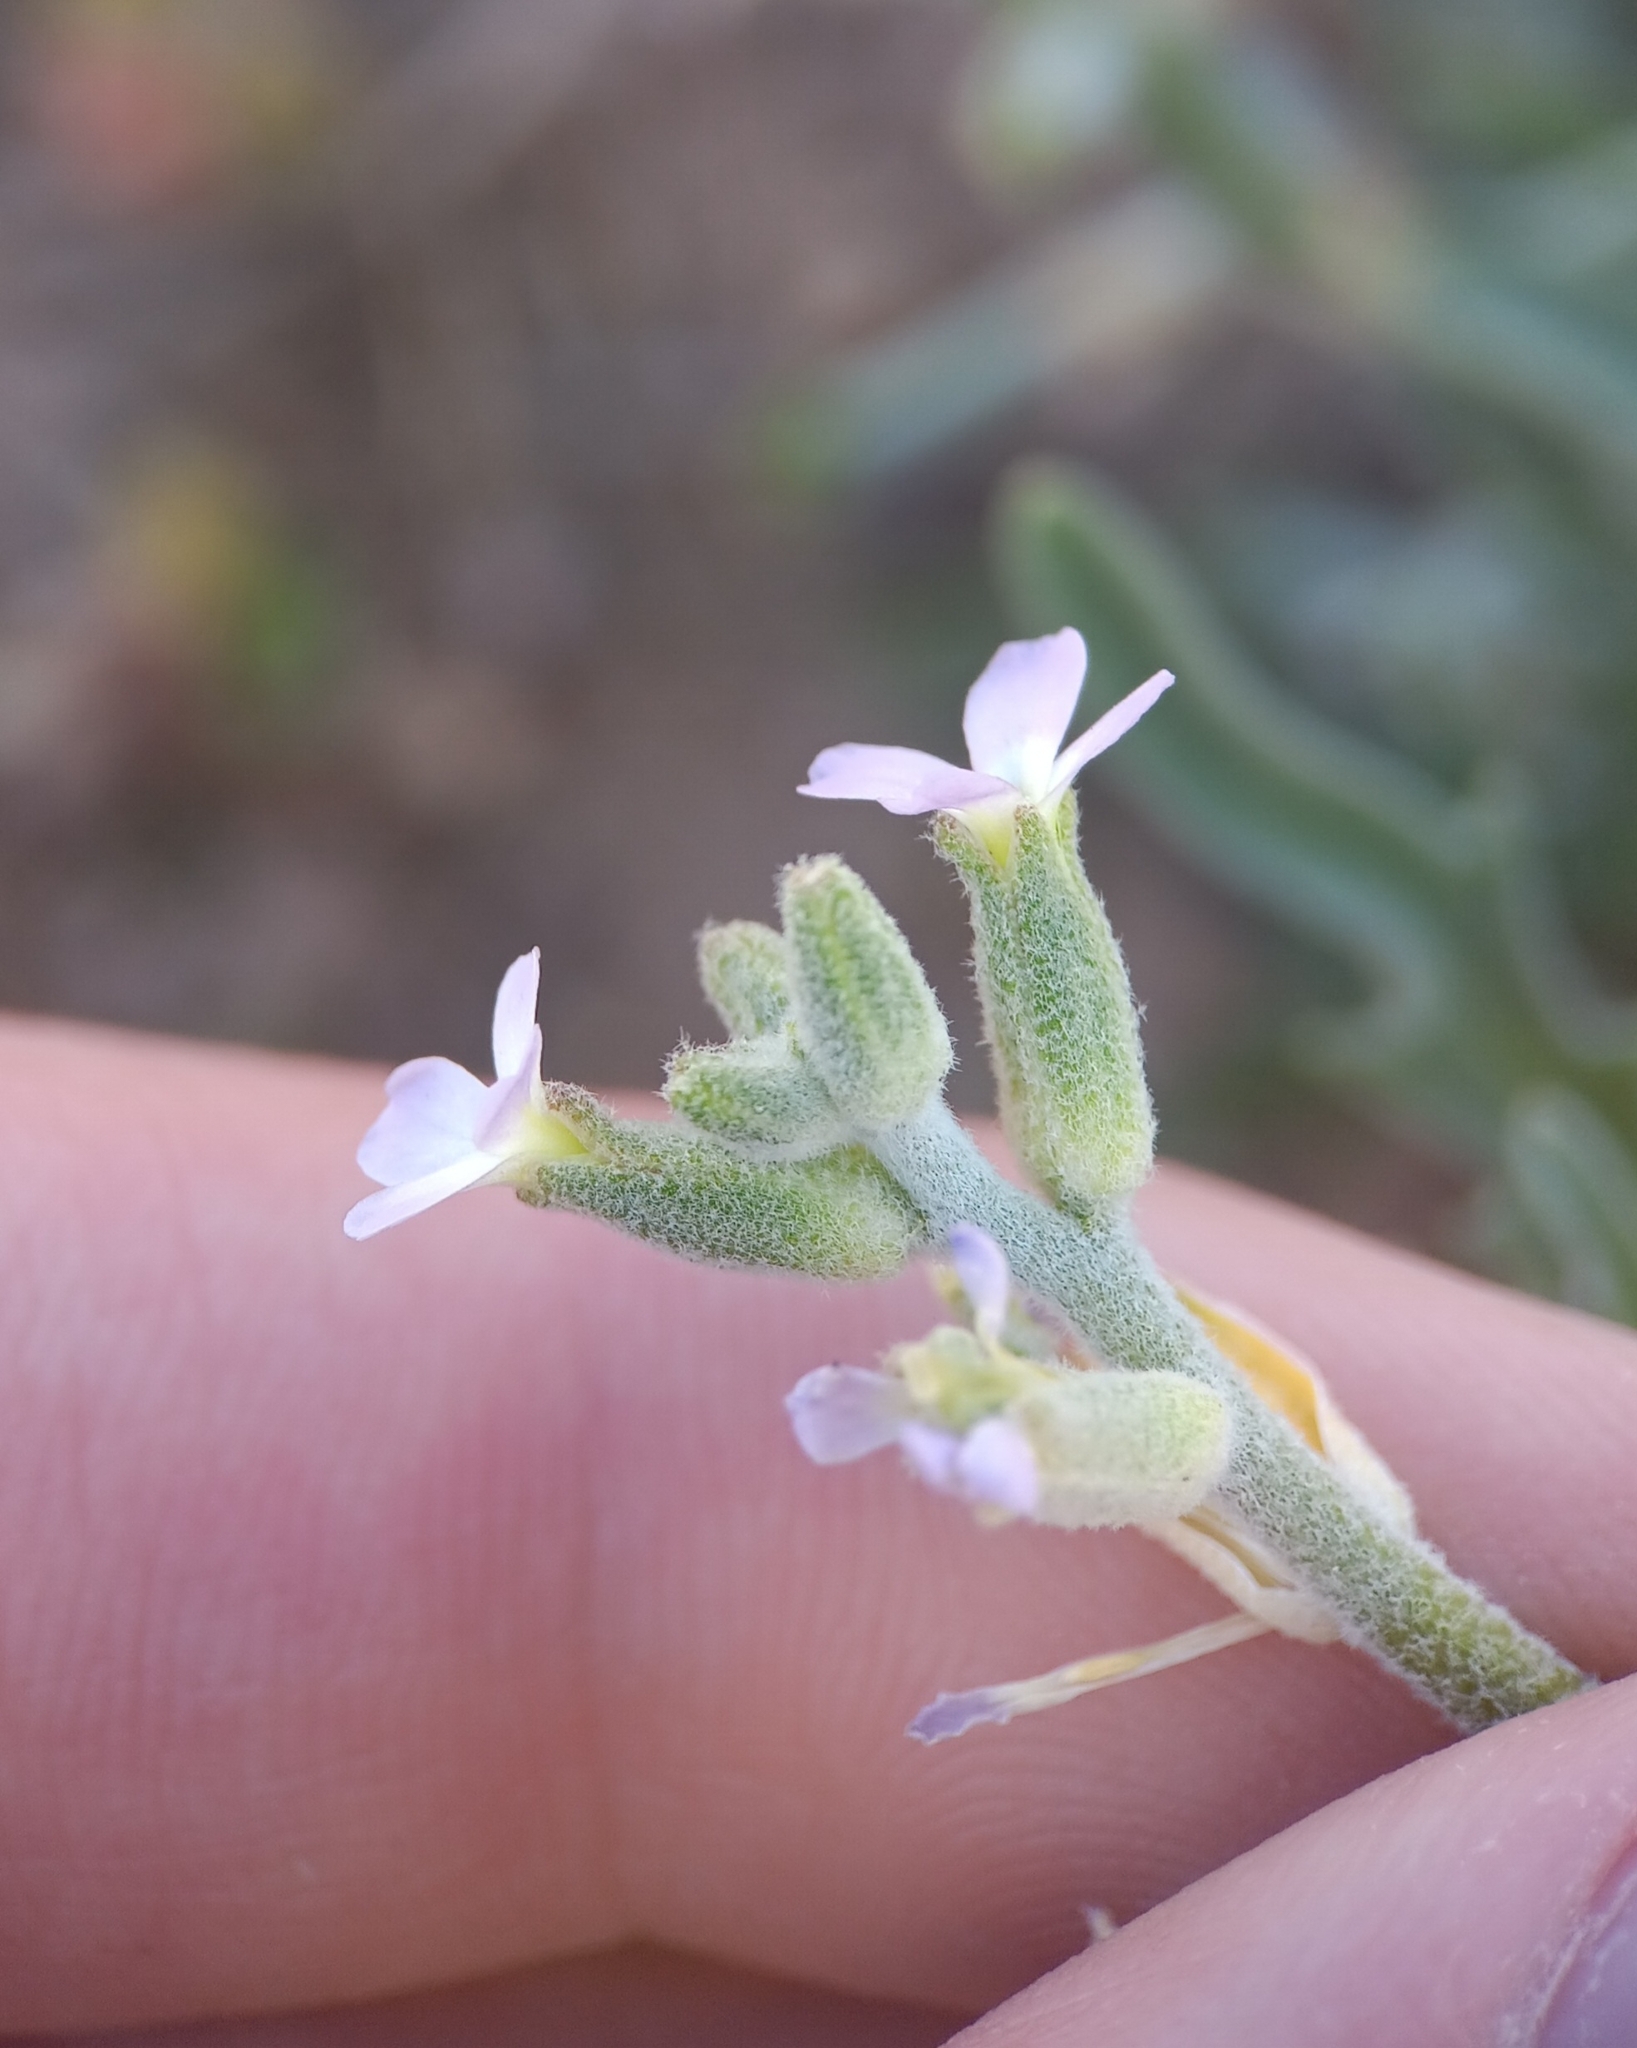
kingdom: Plantae
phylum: Tracheophyta
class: Magnoliopsida
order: Brassicales
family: Brassicaceae
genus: Matthiola
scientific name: Matthiola parviflora
